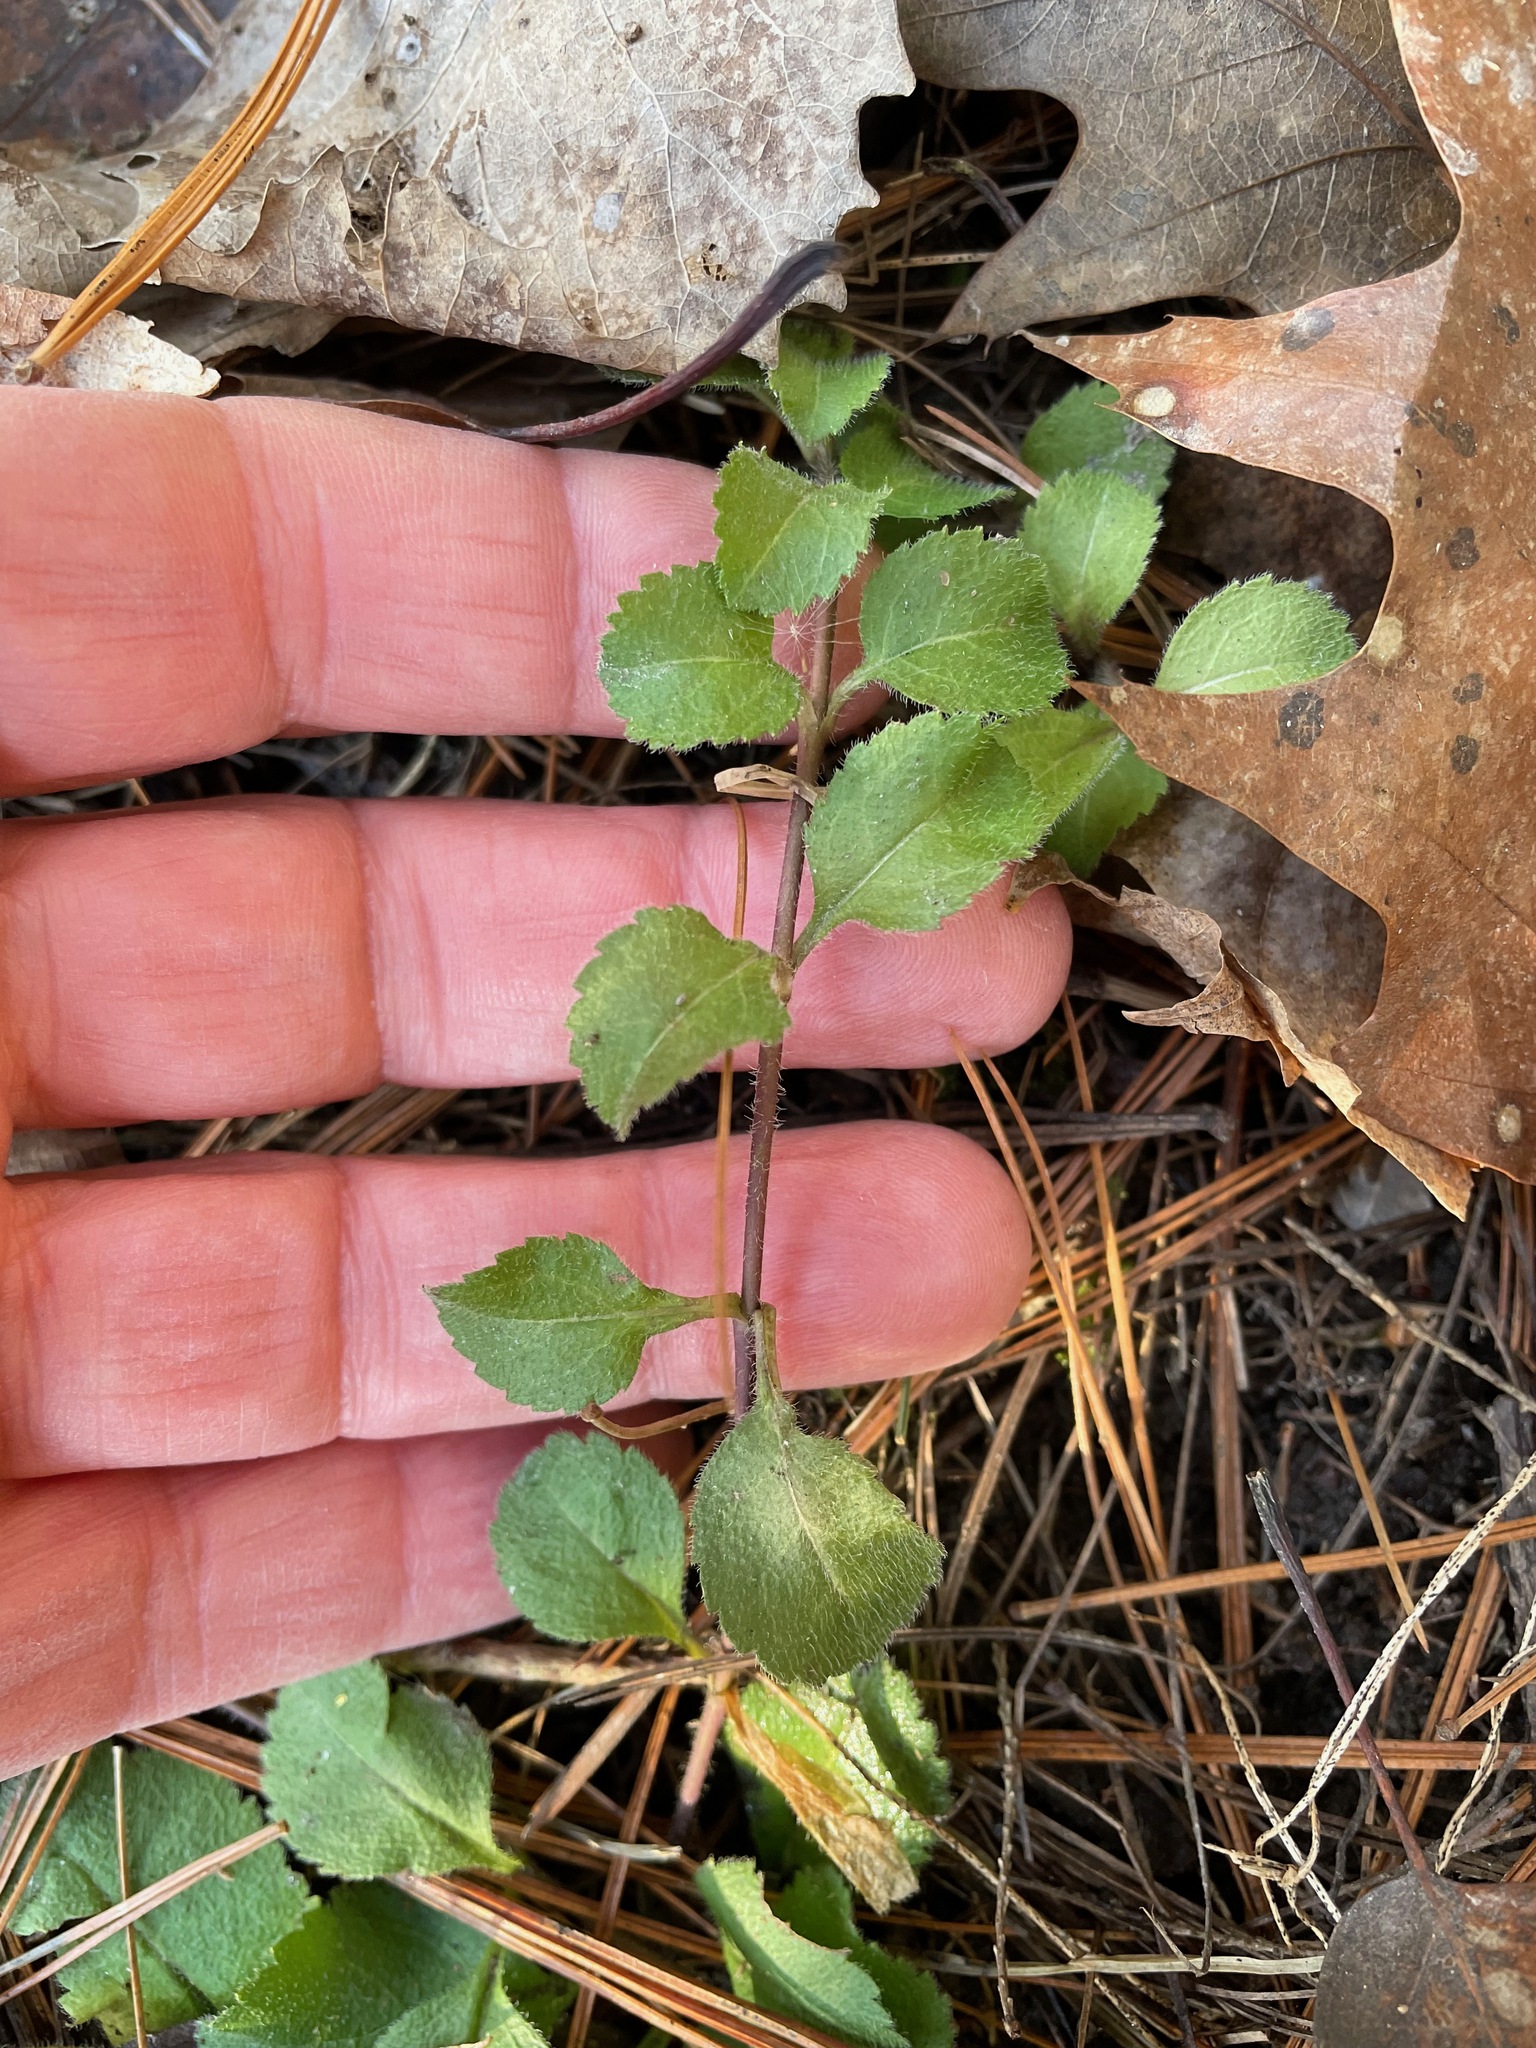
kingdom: Plantae
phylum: Tracheophyta
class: Magnoliopsida
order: Lamiales
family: Plantaginaceae
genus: Veronica
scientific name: Veronica officinalis
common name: Common speedwell
